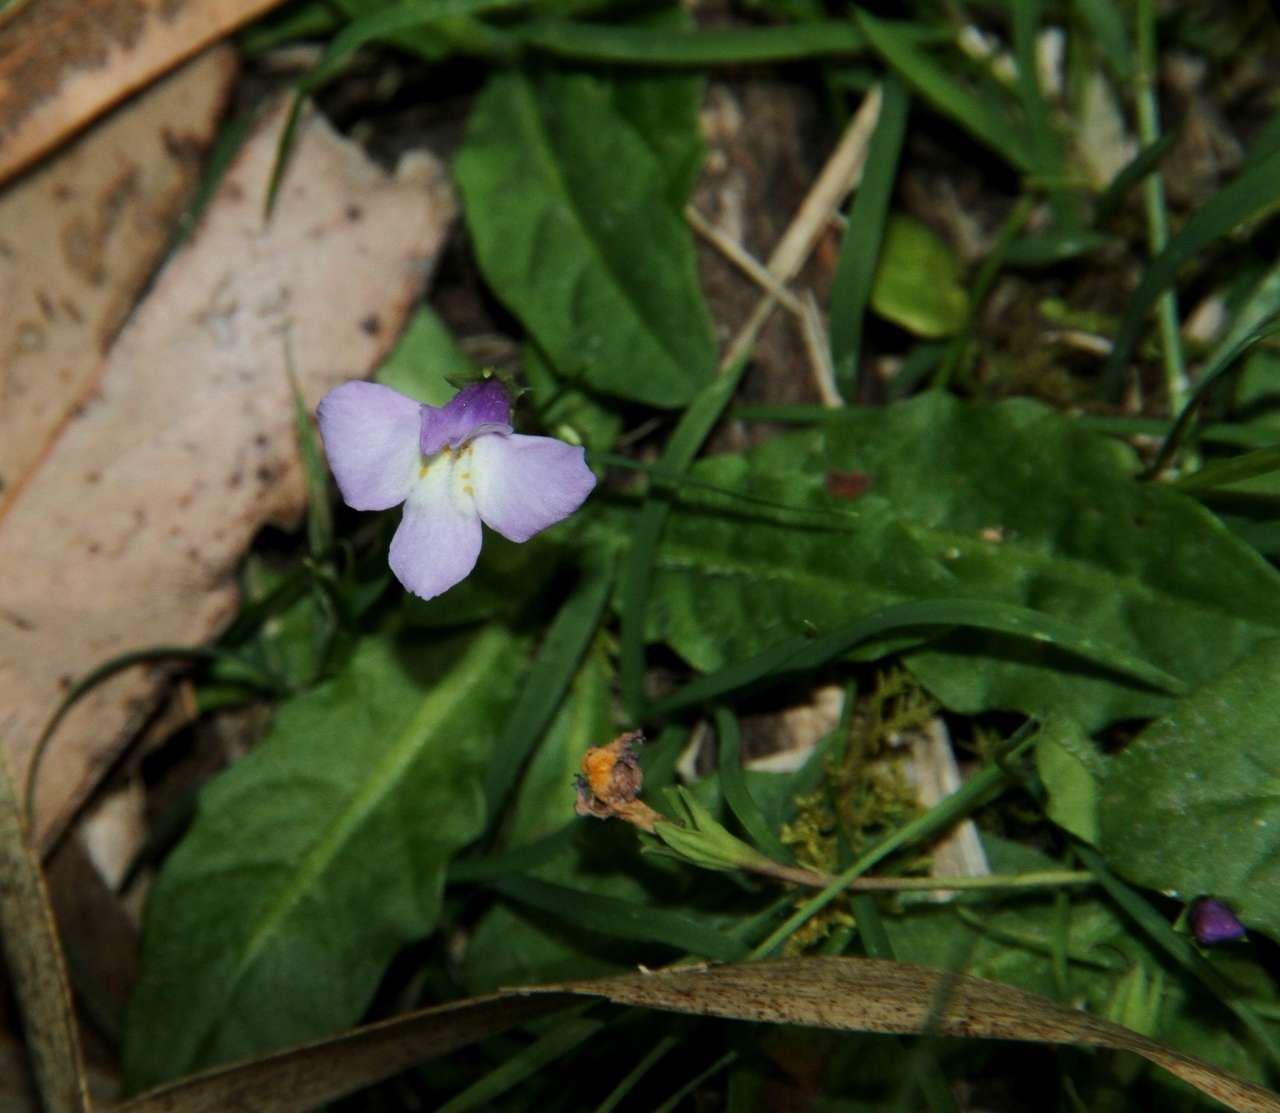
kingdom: Plantae
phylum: Tracheophyta
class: Magnoliopsida
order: Lamiales
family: Mazaceae
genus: Mazus
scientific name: Mazus pumilio
